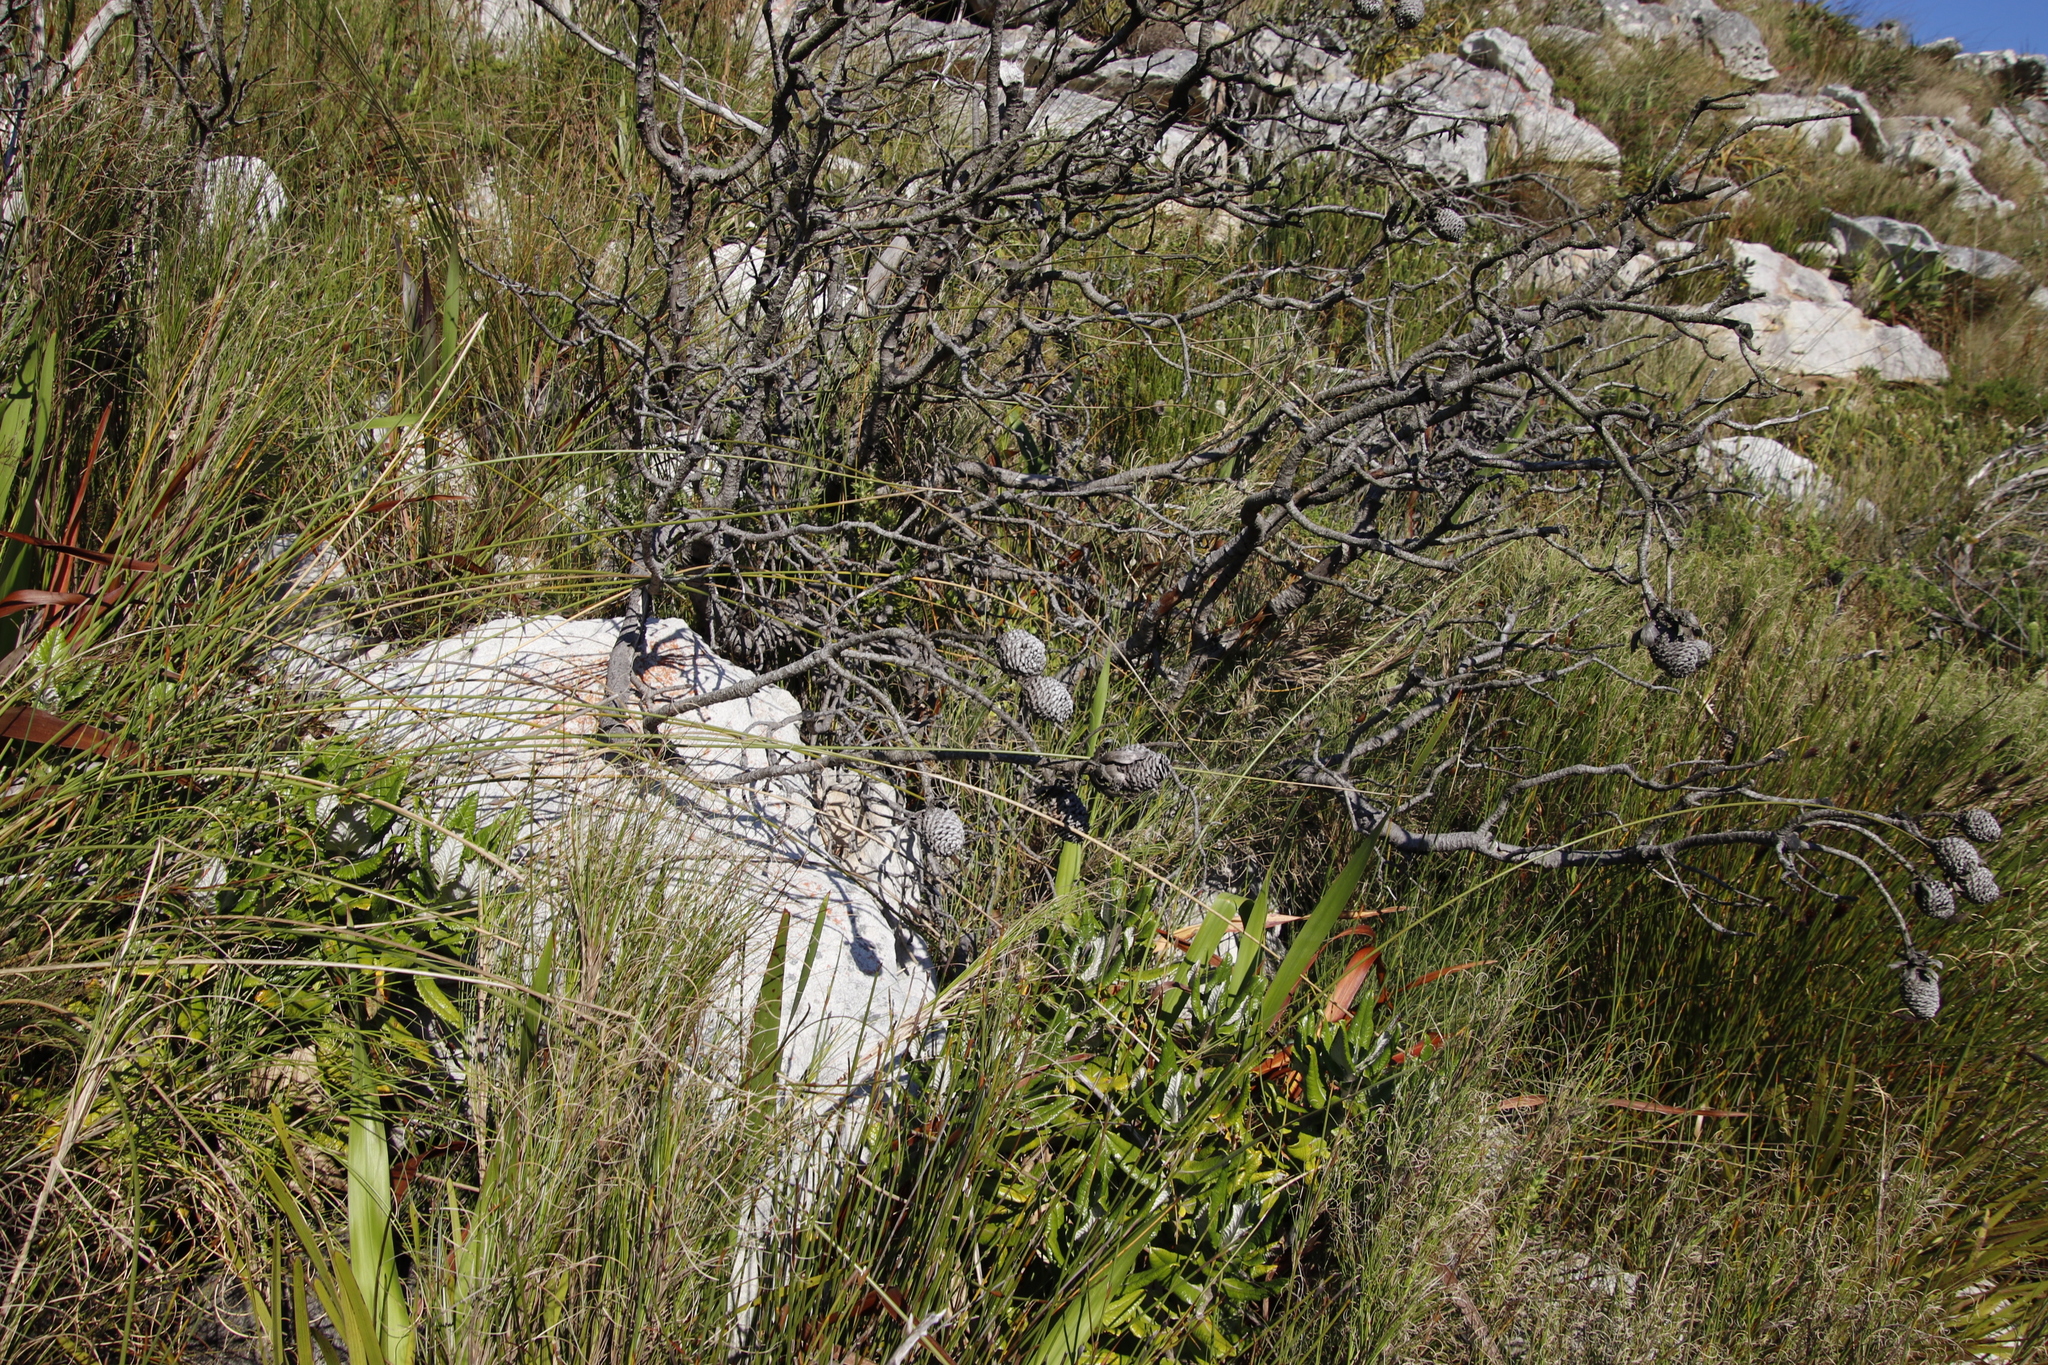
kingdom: Plantae
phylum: Tracheophyta
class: Magnoliopsida
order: Proteales
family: Proteaceae
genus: Leucadendron
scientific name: Leucadendron strobilinum
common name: Mountain rose
